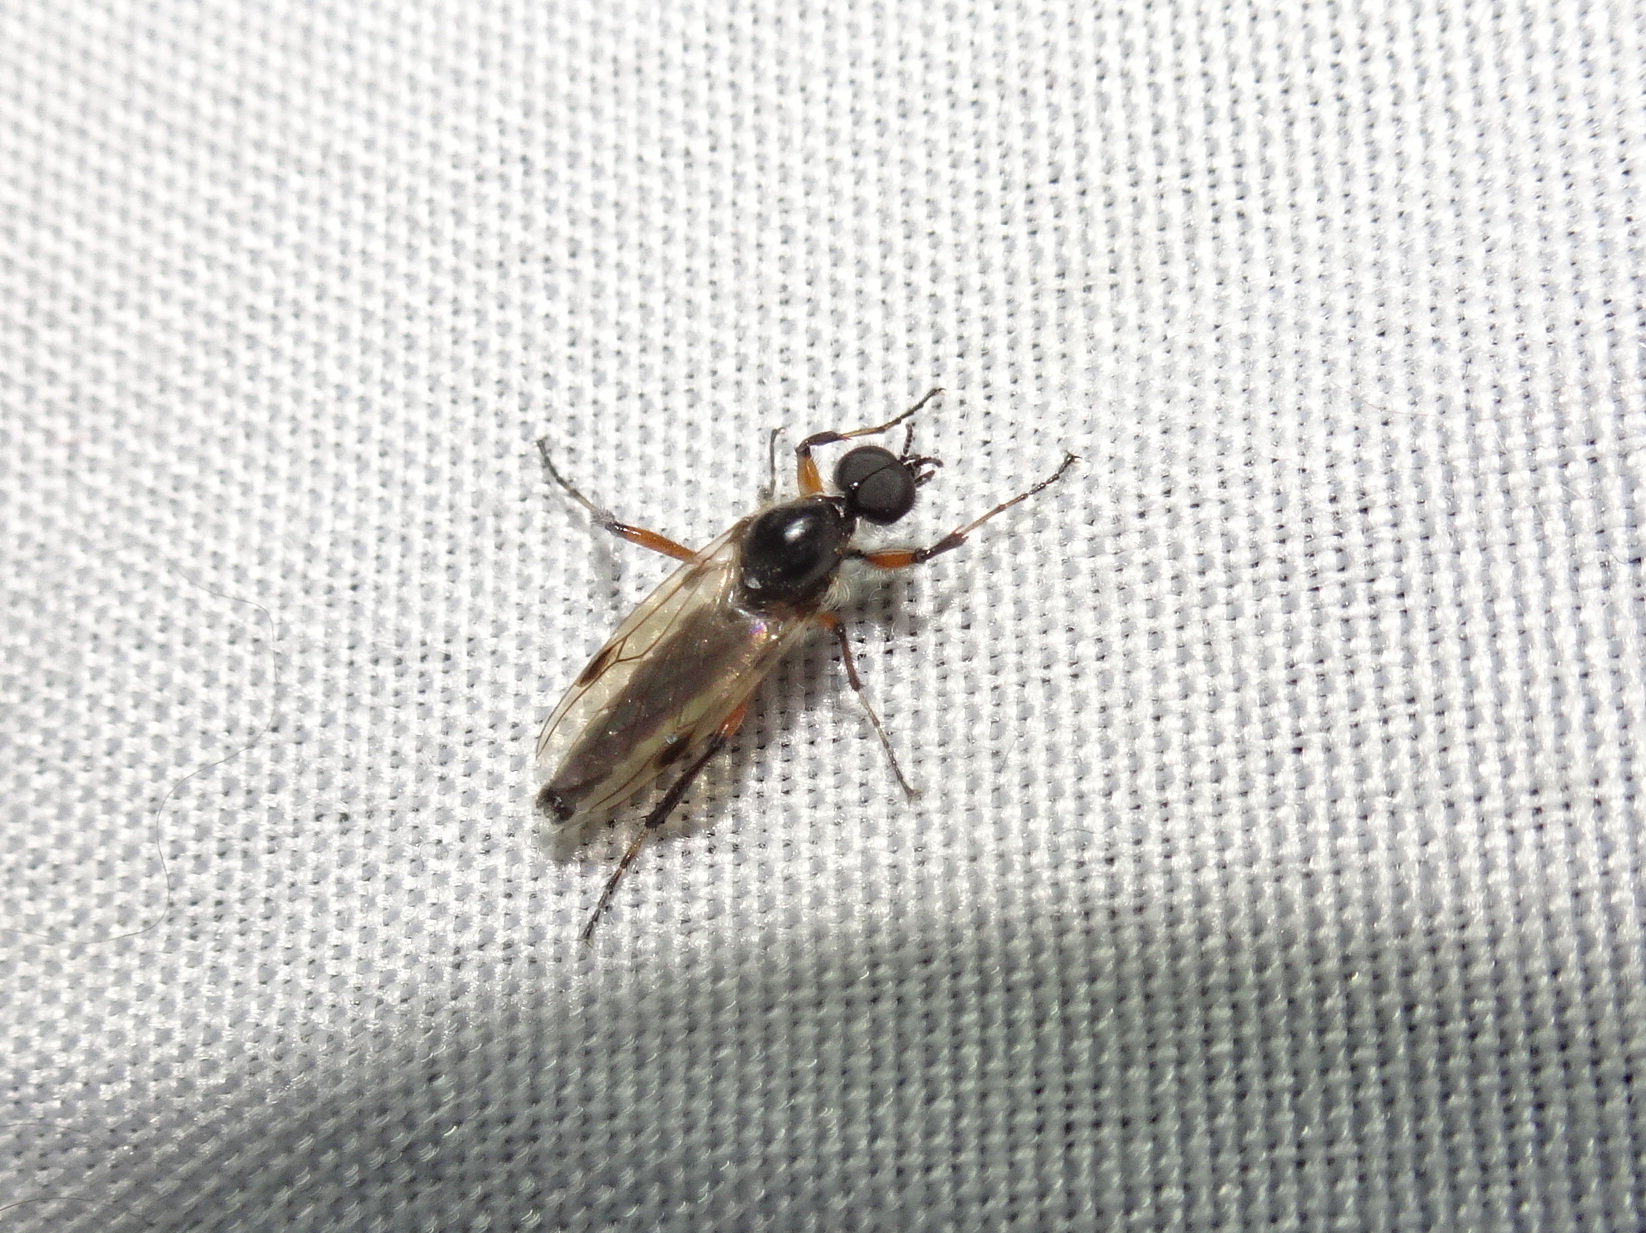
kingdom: Animalia
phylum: Arthropoda
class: Insecta
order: Diptera
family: Bibionidae
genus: Bibio
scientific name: Bibio articulatus
